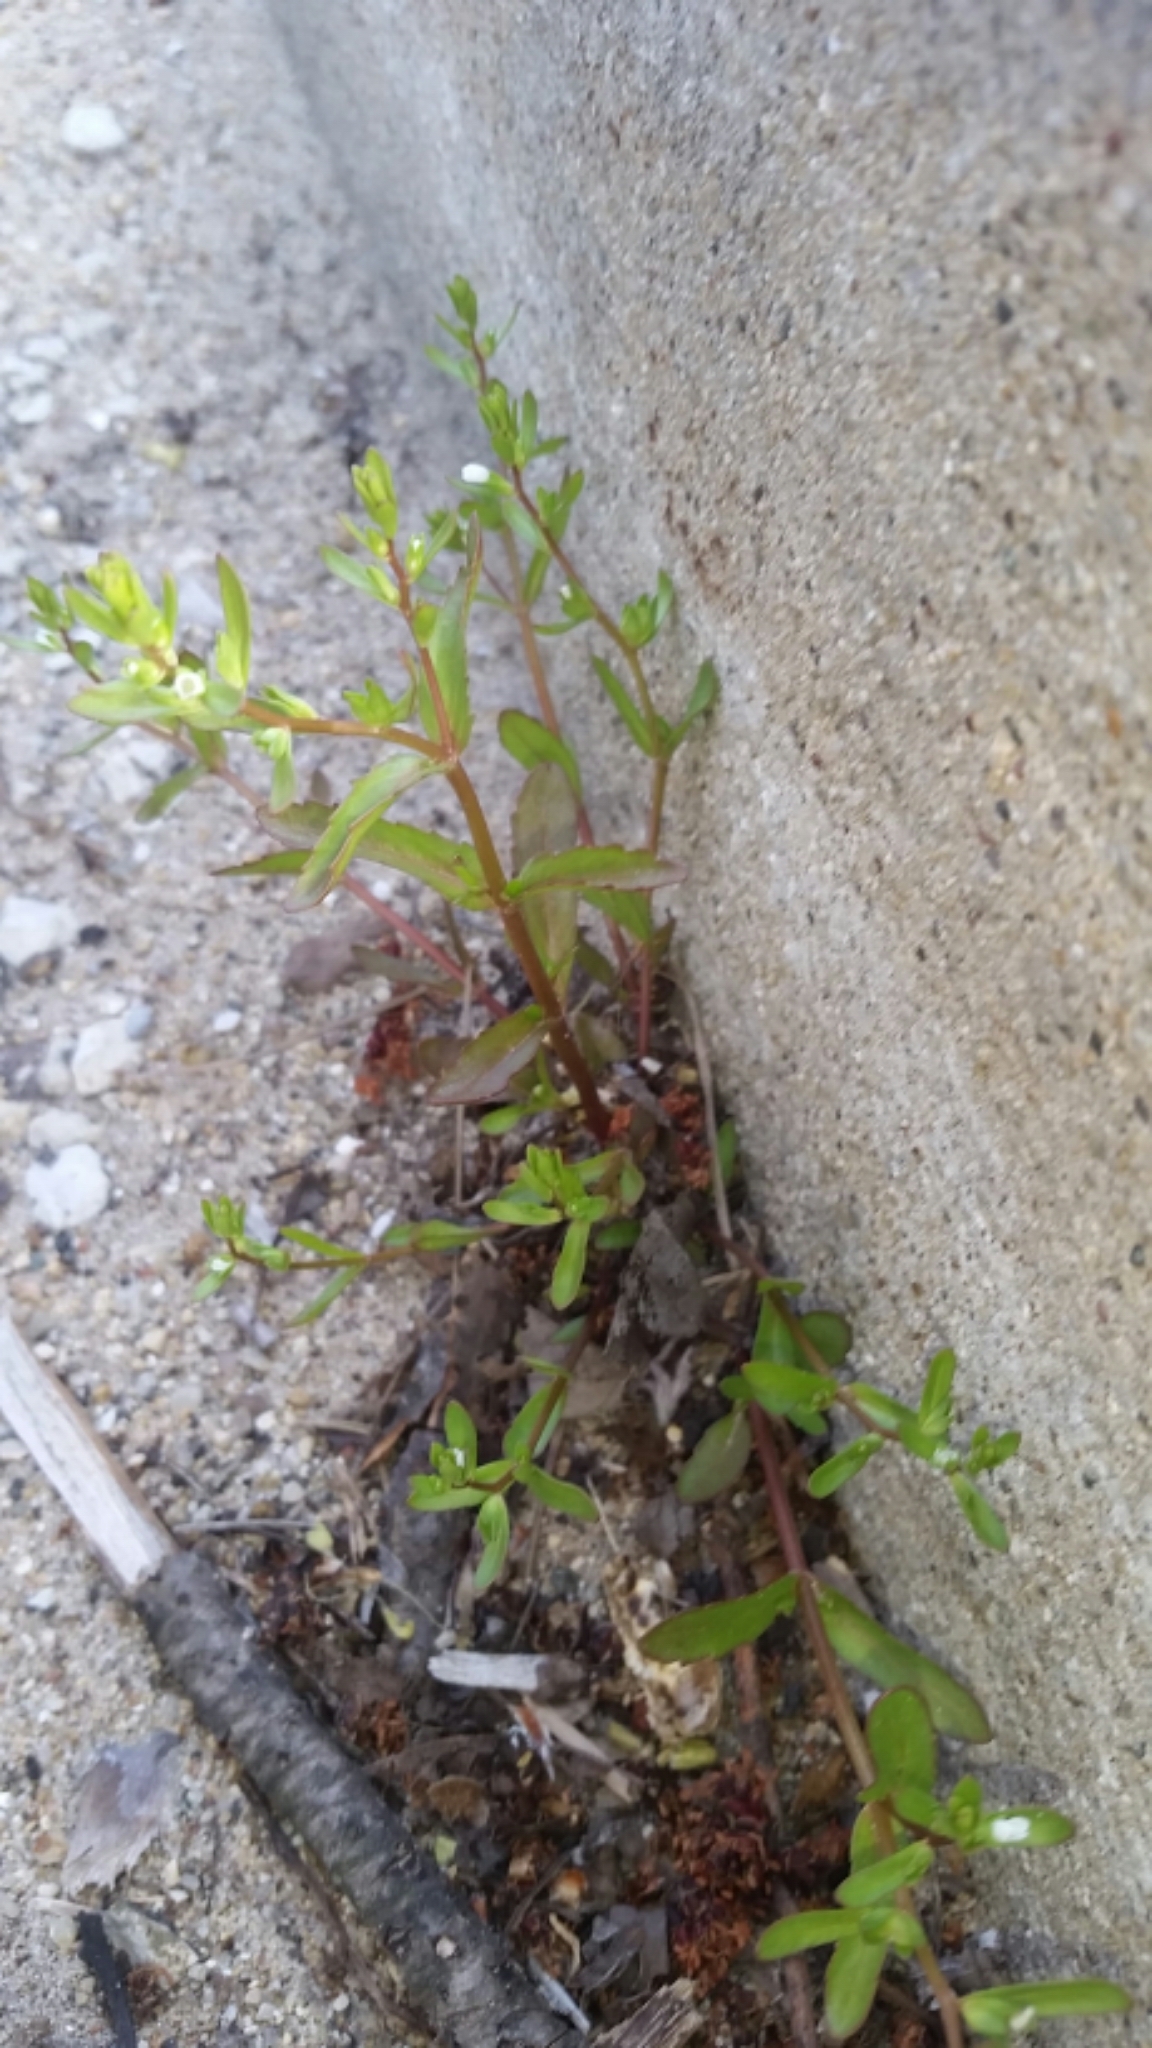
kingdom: Plantae
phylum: Tracheophyta
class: Magnoliopsida
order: Lamiales
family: Plantaginaceae
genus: Veronica
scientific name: Veronica peregrina
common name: Neckweed
